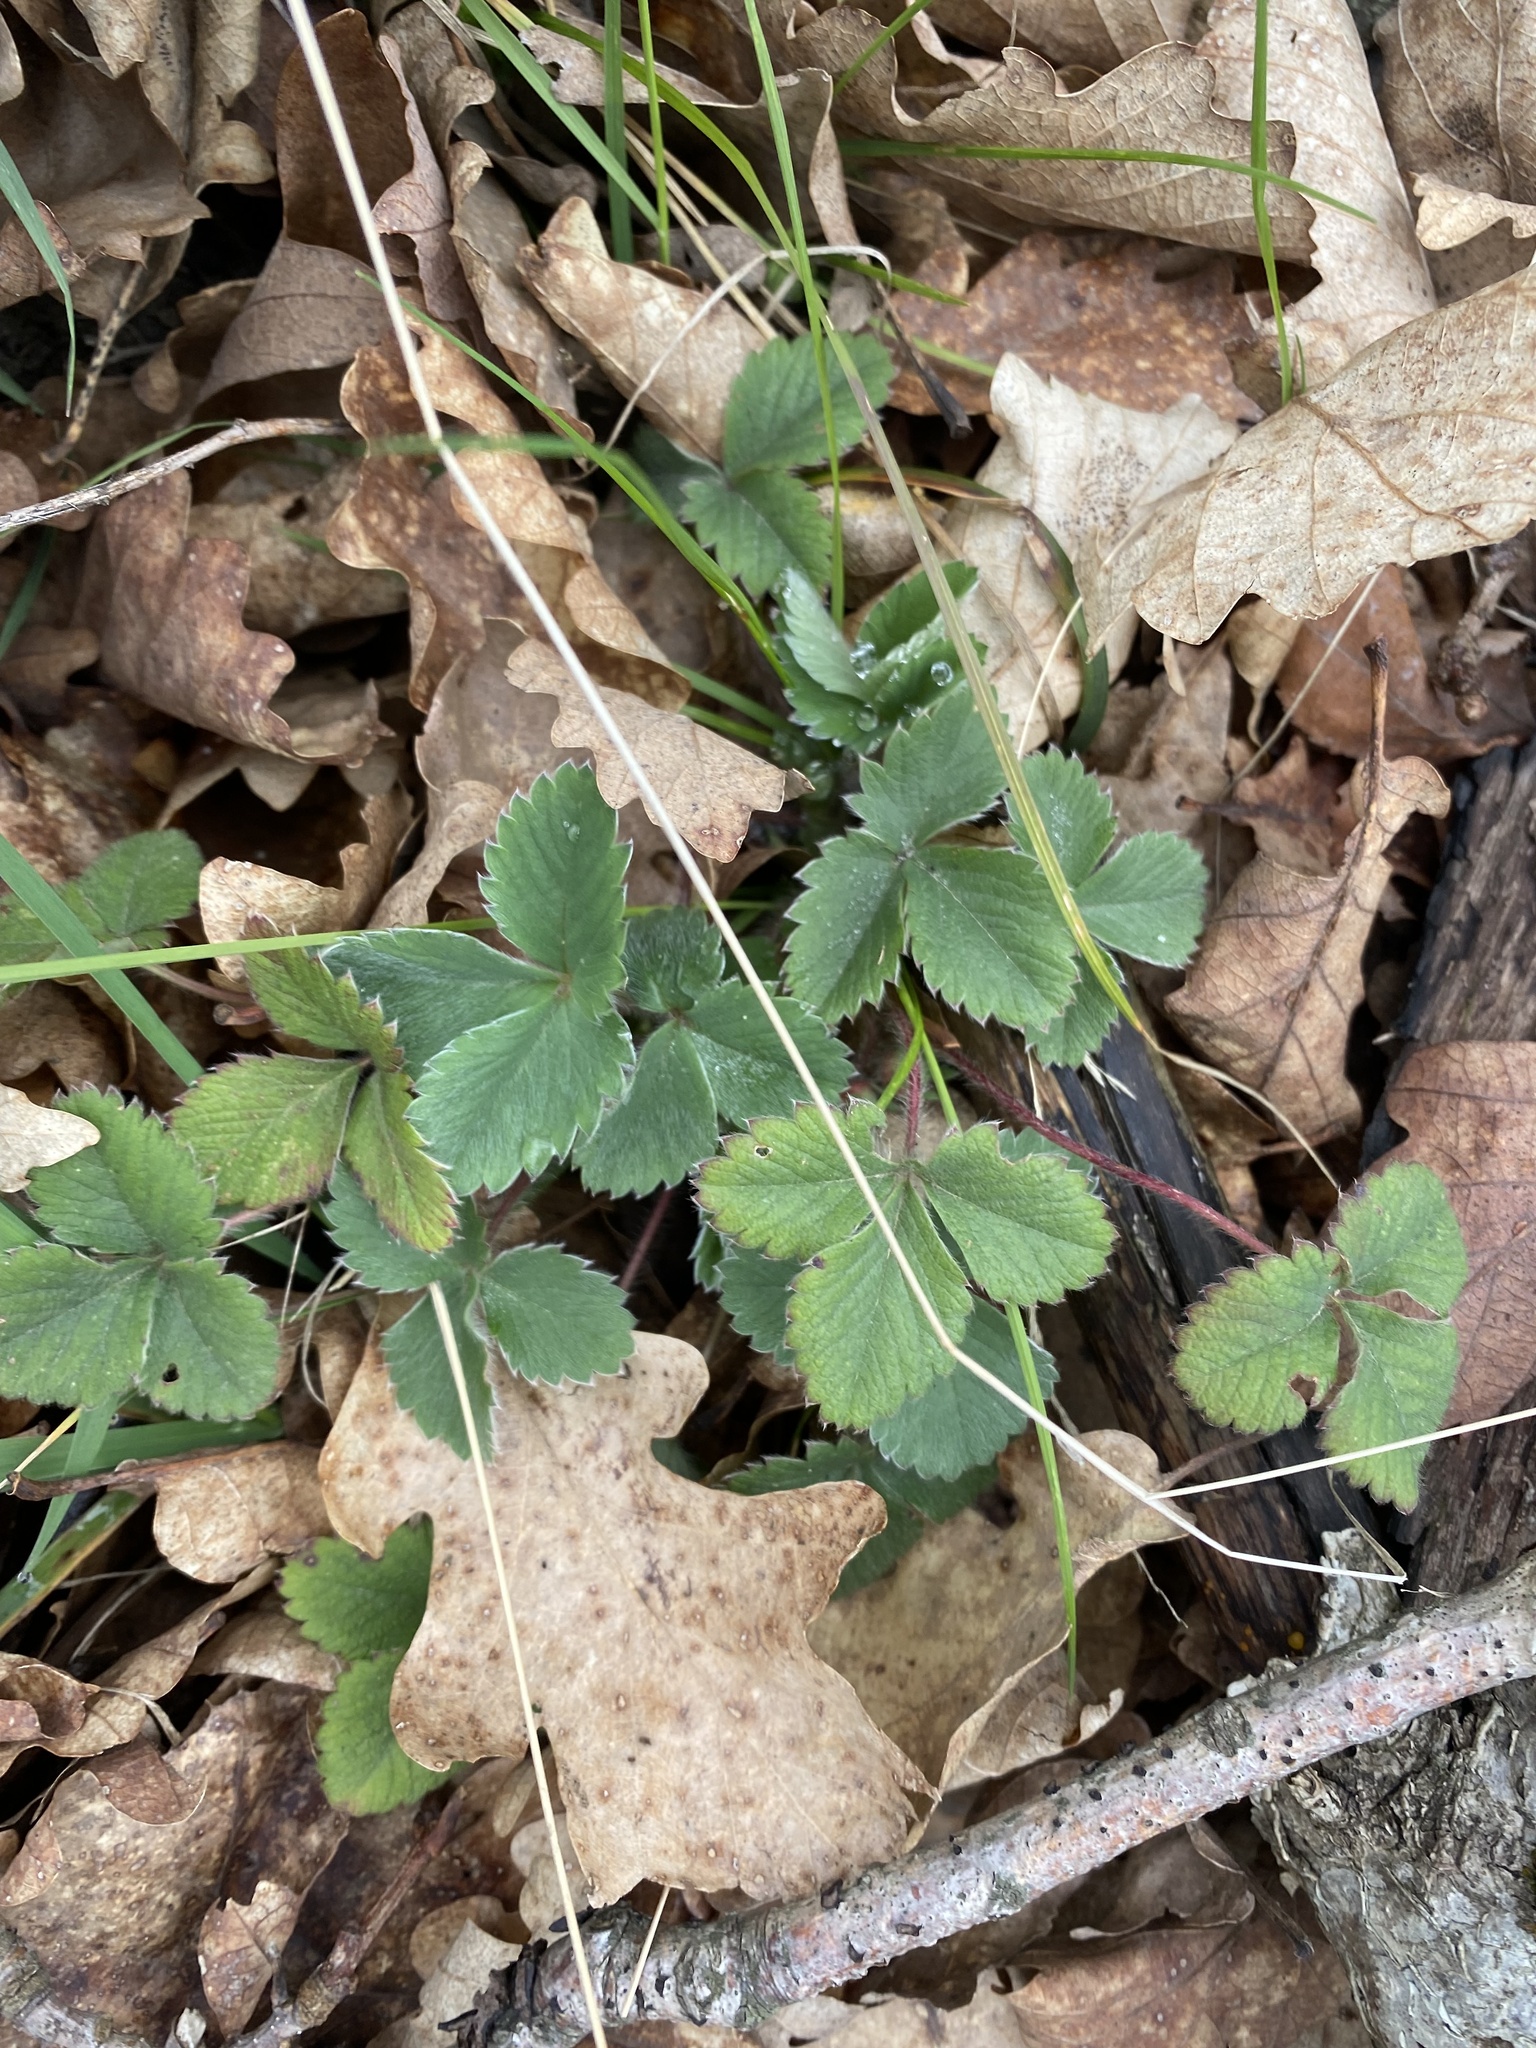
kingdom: Plantae
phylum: Tracheophyta
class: Magnoliopsida
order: Rosales
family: Rosaceae
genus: Potentilla
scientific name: Potentilla micrantha
